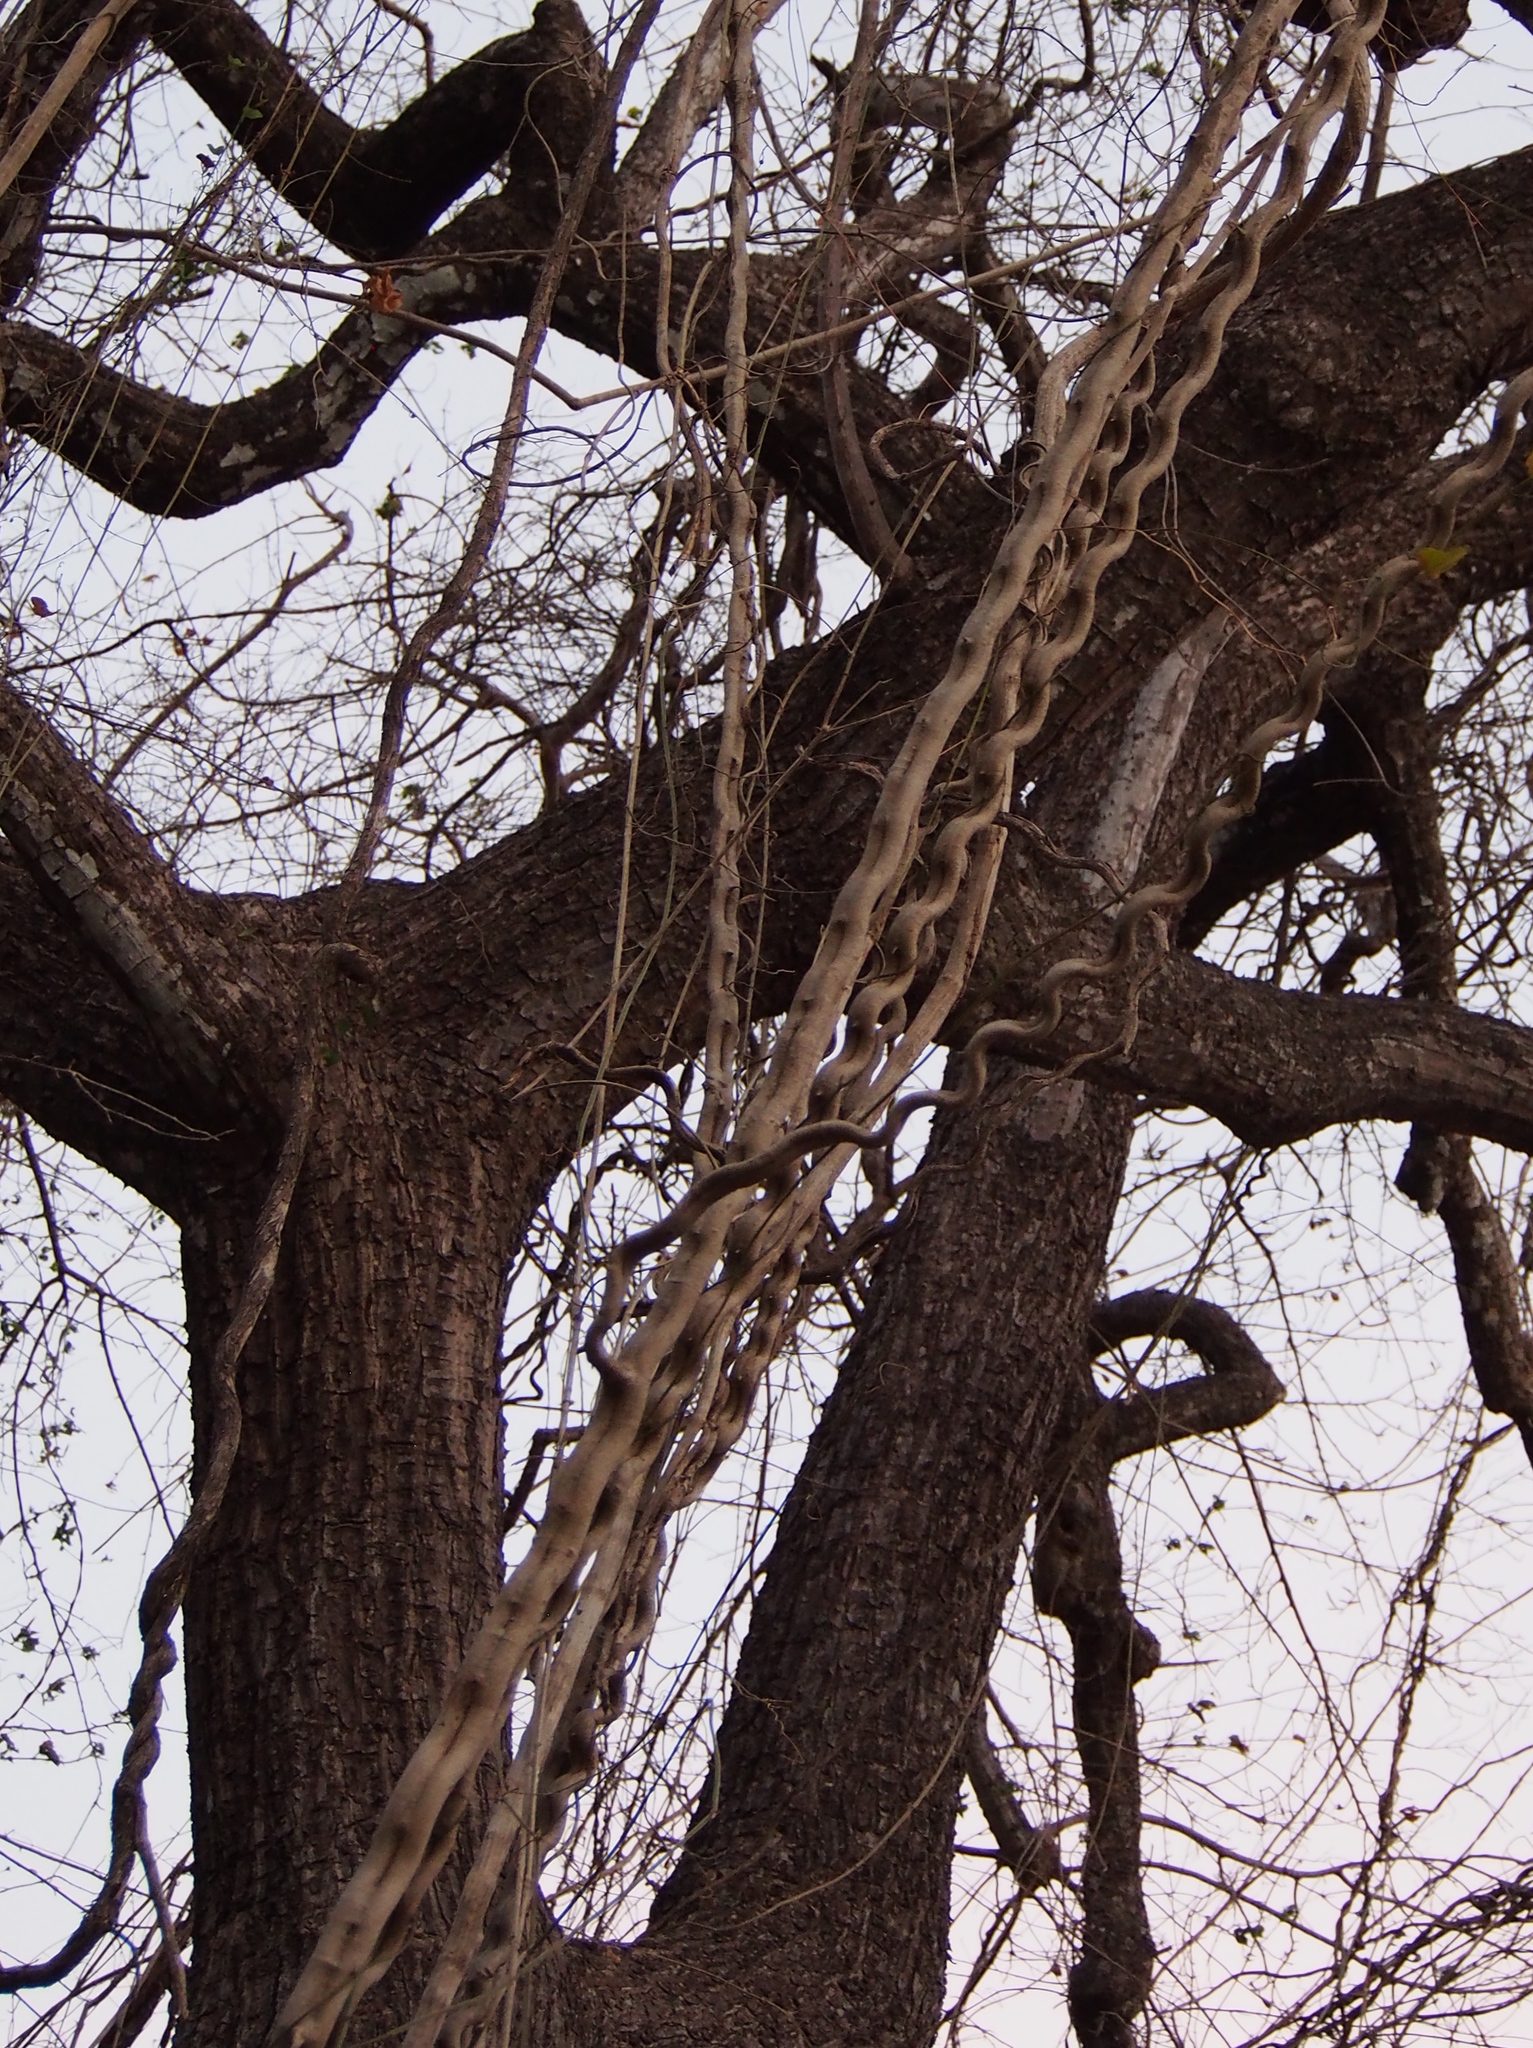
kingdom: Plantae
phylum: Tracheophyta
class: Magnoliopsida
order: Fabales
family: Fabaceae
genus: Schnella
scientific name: Schnella glabra
